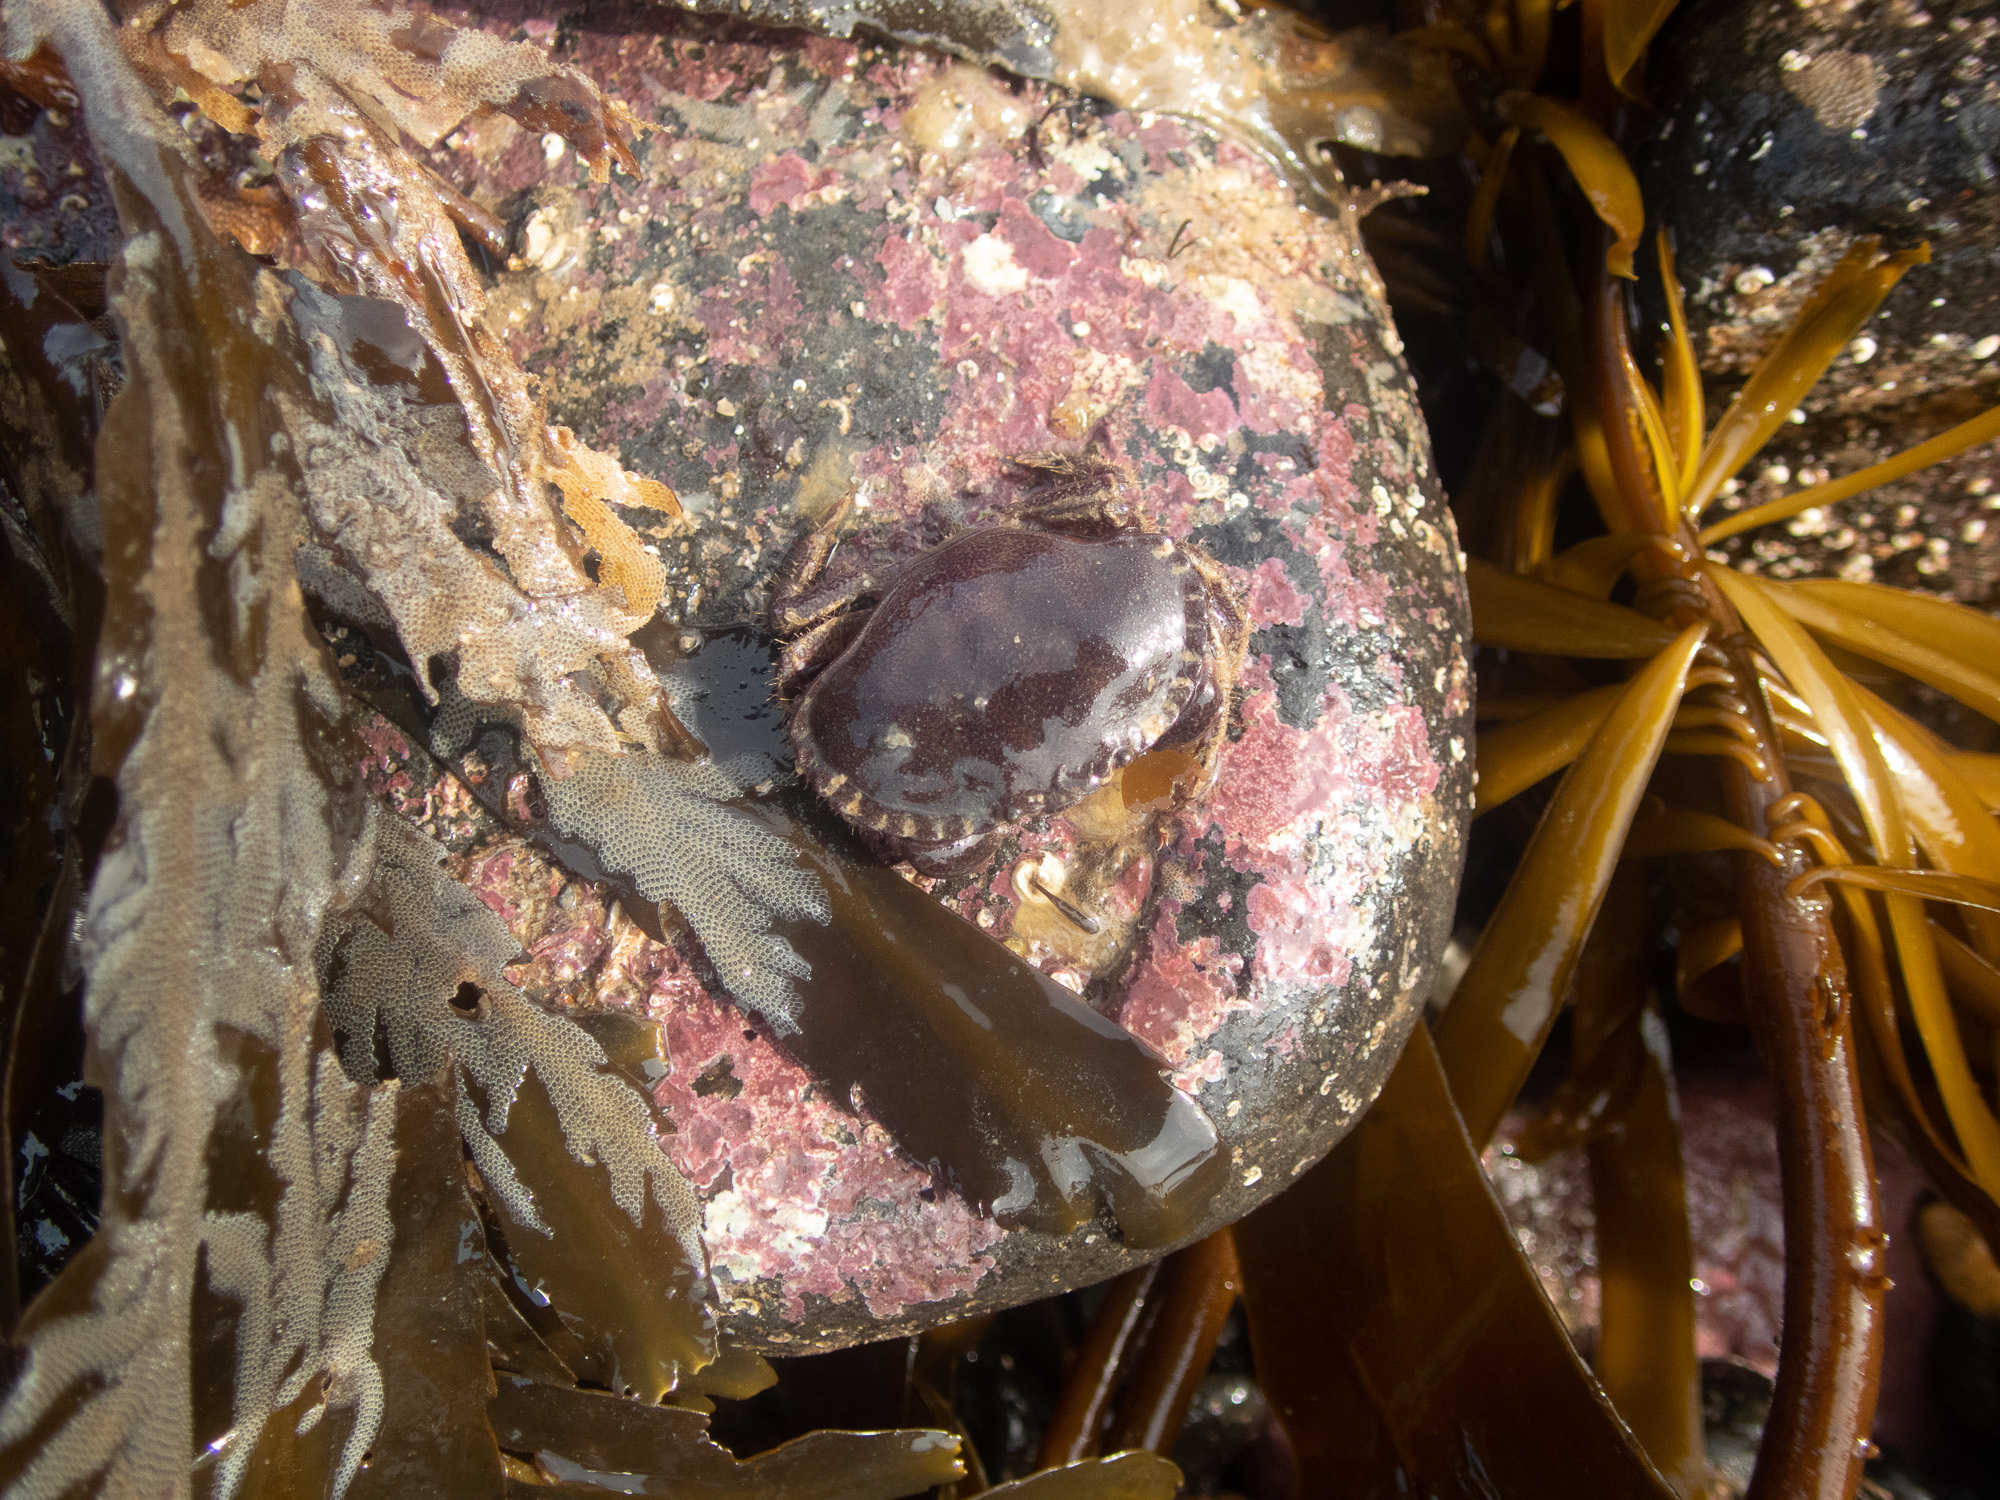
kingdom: Animalia
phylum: Arthropoda
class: Malacostraca
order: Decapoda
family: Cancridae
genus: Cancer
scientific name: Cancer pagurus
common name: Edible crab
